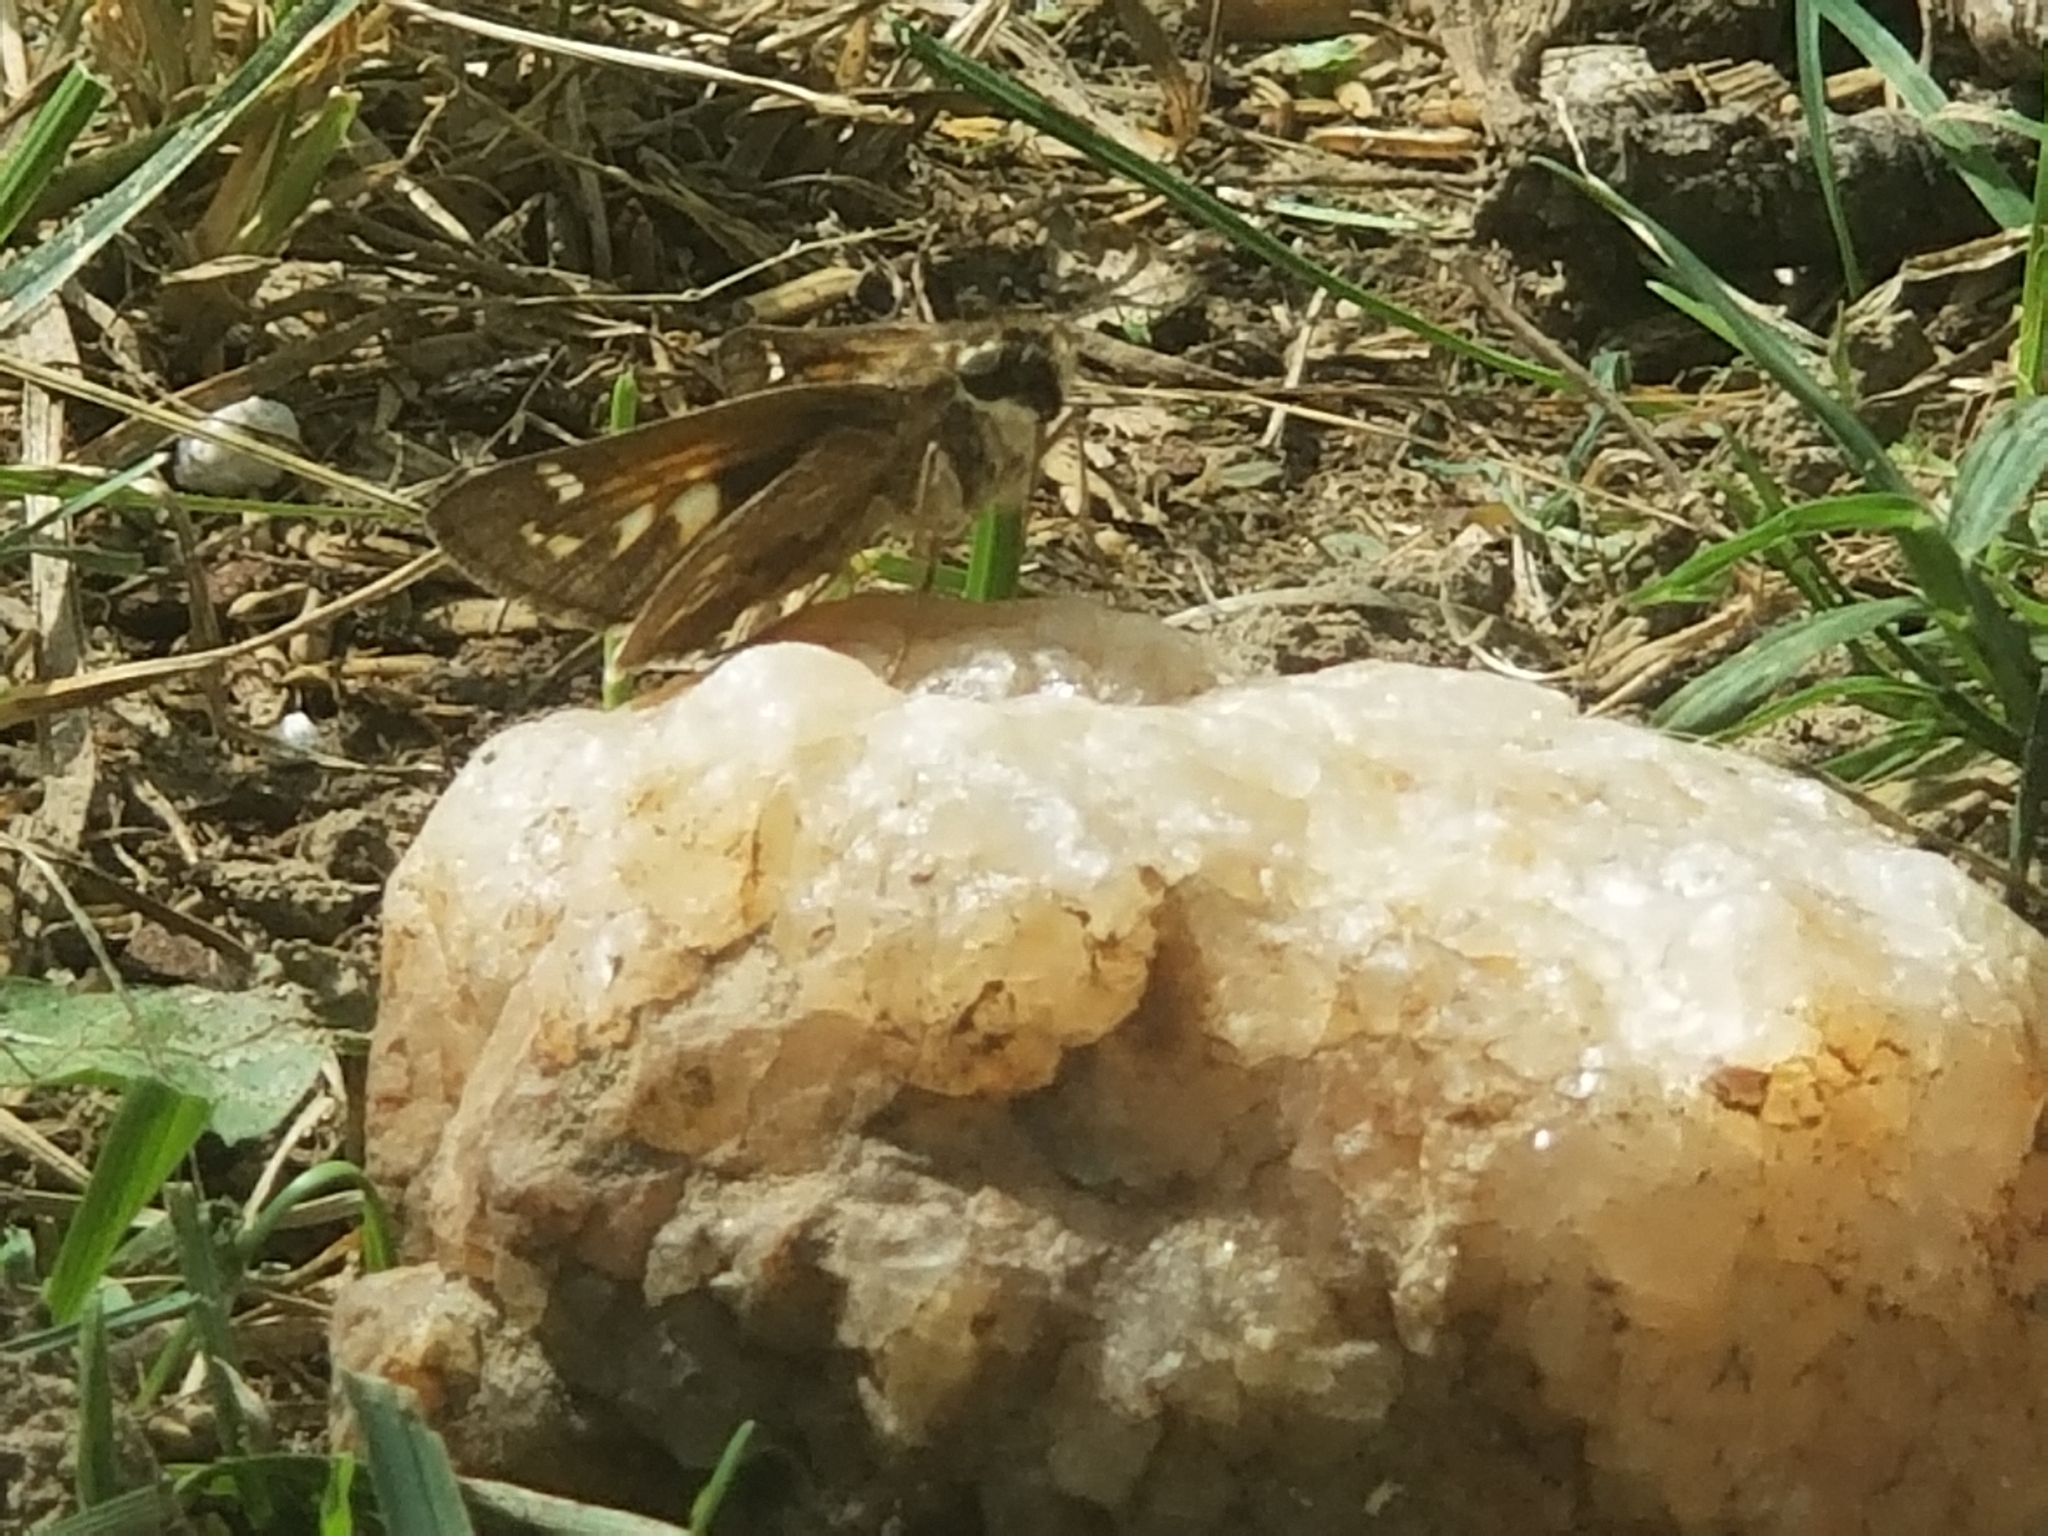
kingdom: Animalia
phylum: Arthropoda
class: Insecta
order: Lepidoptera
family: Hesperiidae
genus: Atalopedes
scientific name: Atalopedes
